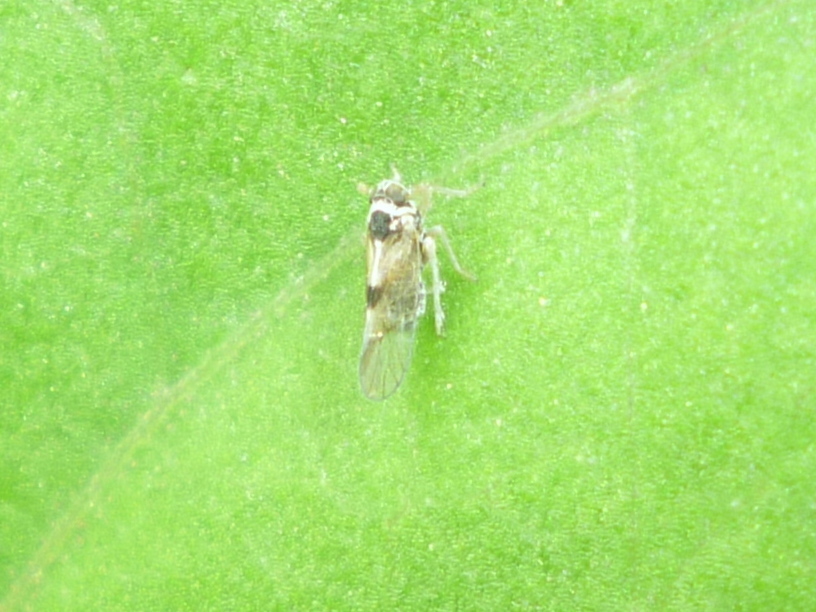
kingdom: Animalia
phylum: Arthropoda
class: Insecta
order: Hemiptera
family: Delphacidae
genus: Chionomus
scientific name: Chionomus
